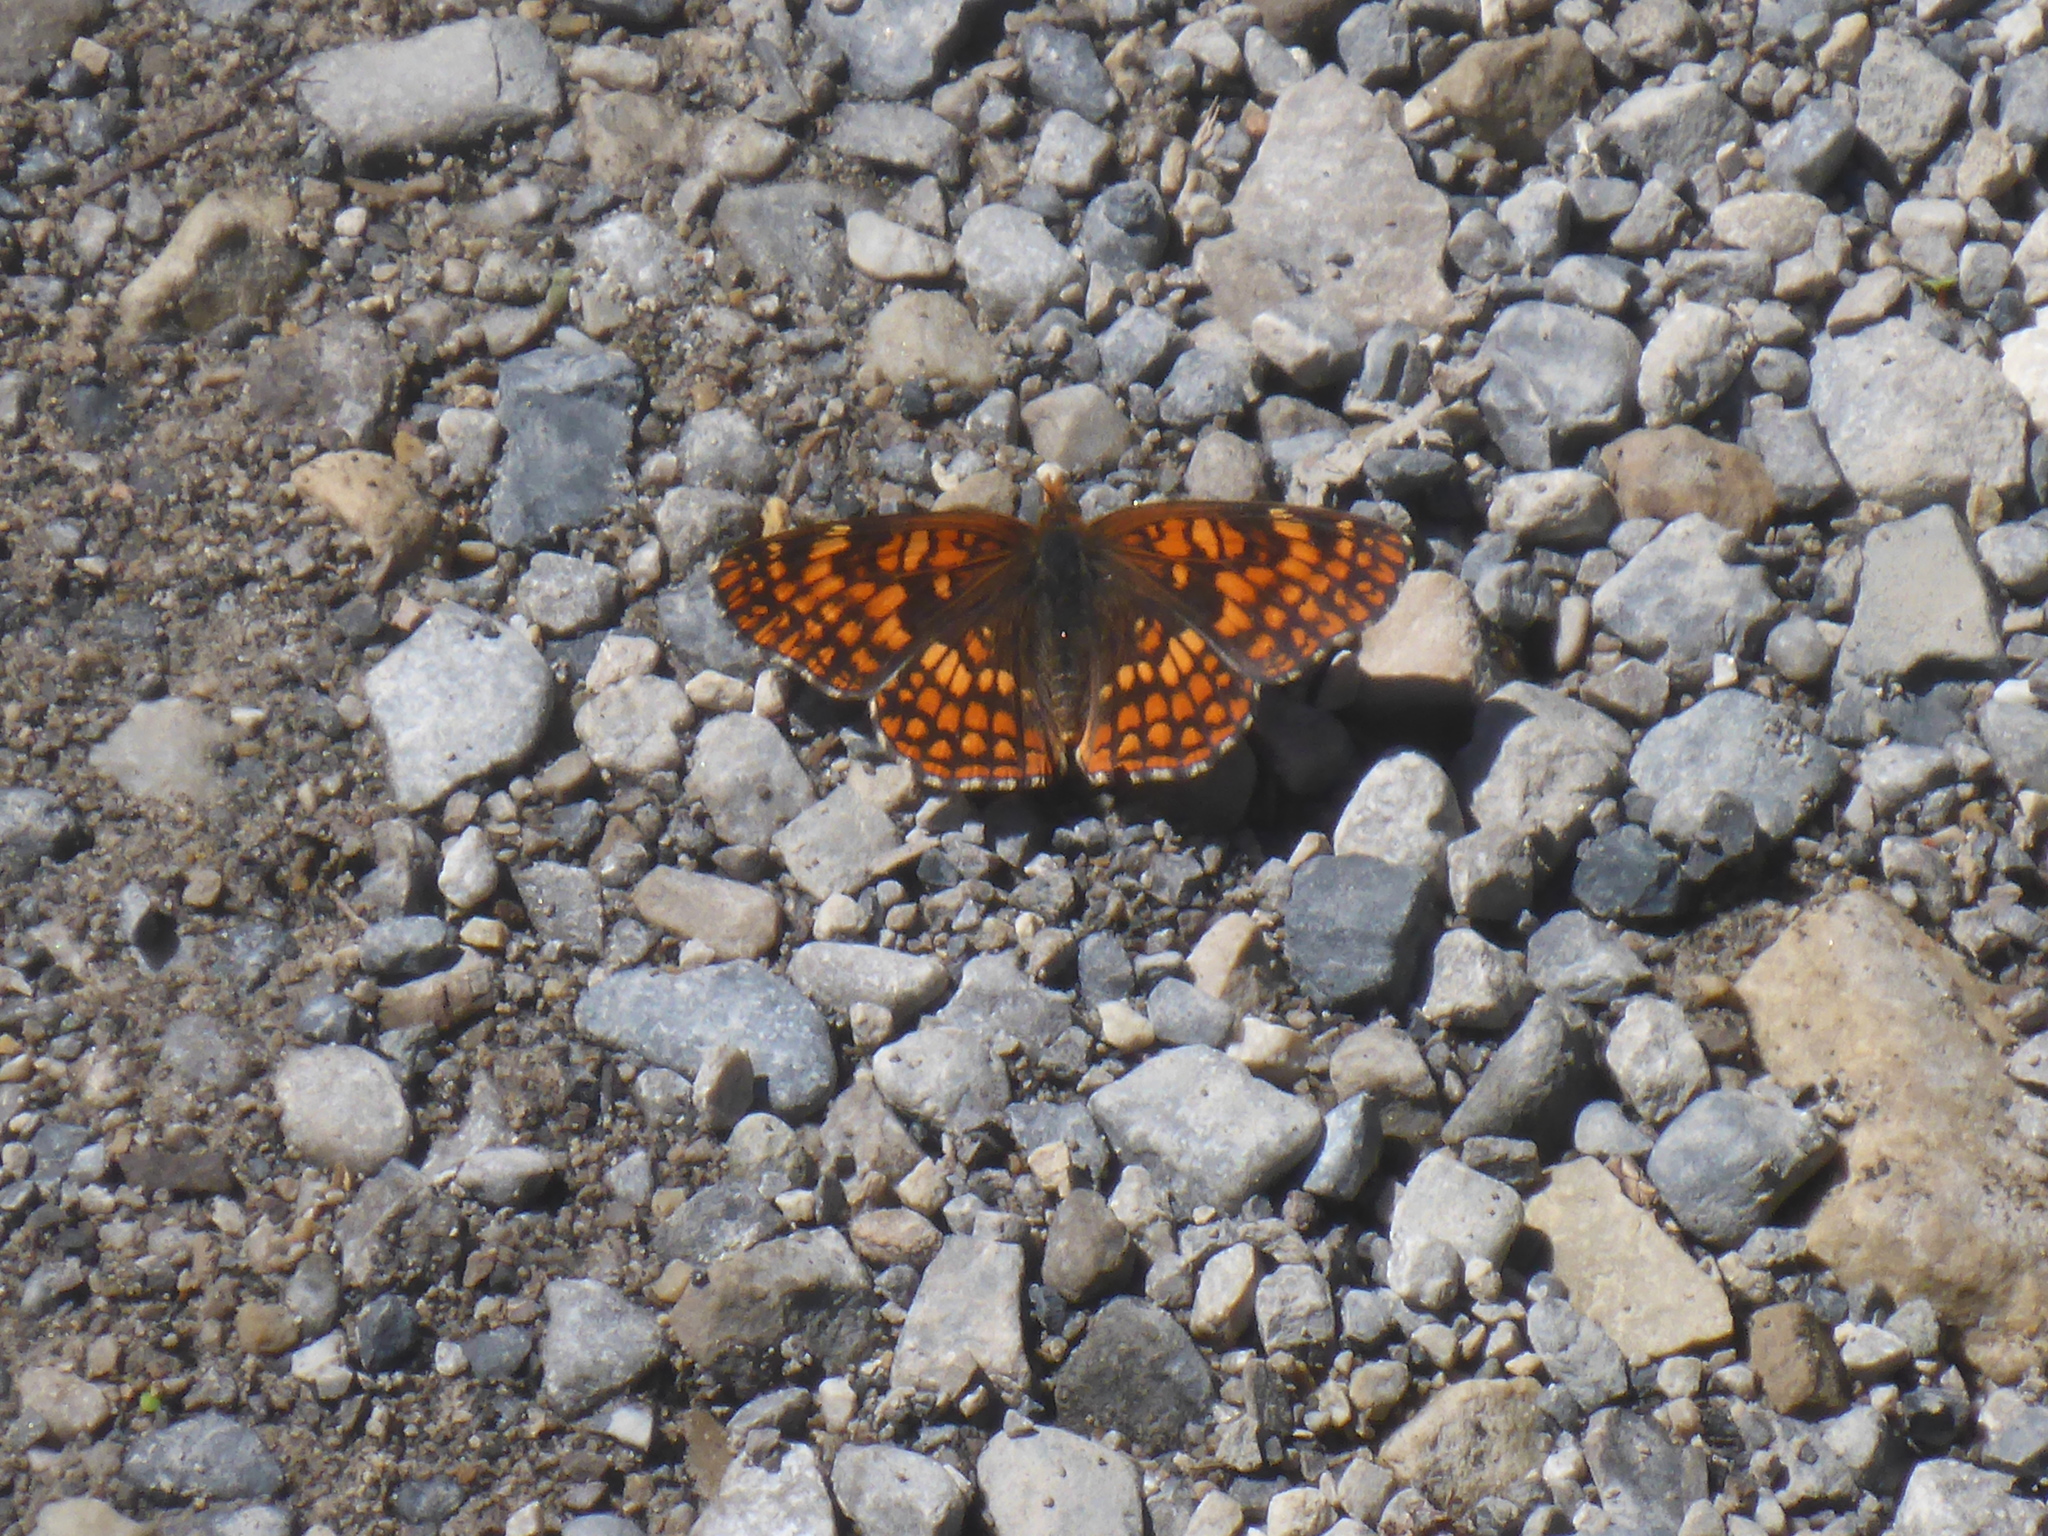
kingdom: Animalia
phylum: Arthropoda
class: Insecta
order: Lepidoptera
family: Nymphalidae
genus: Chlosyne
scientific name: Chlosyne palla
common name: Northern checkerspot
